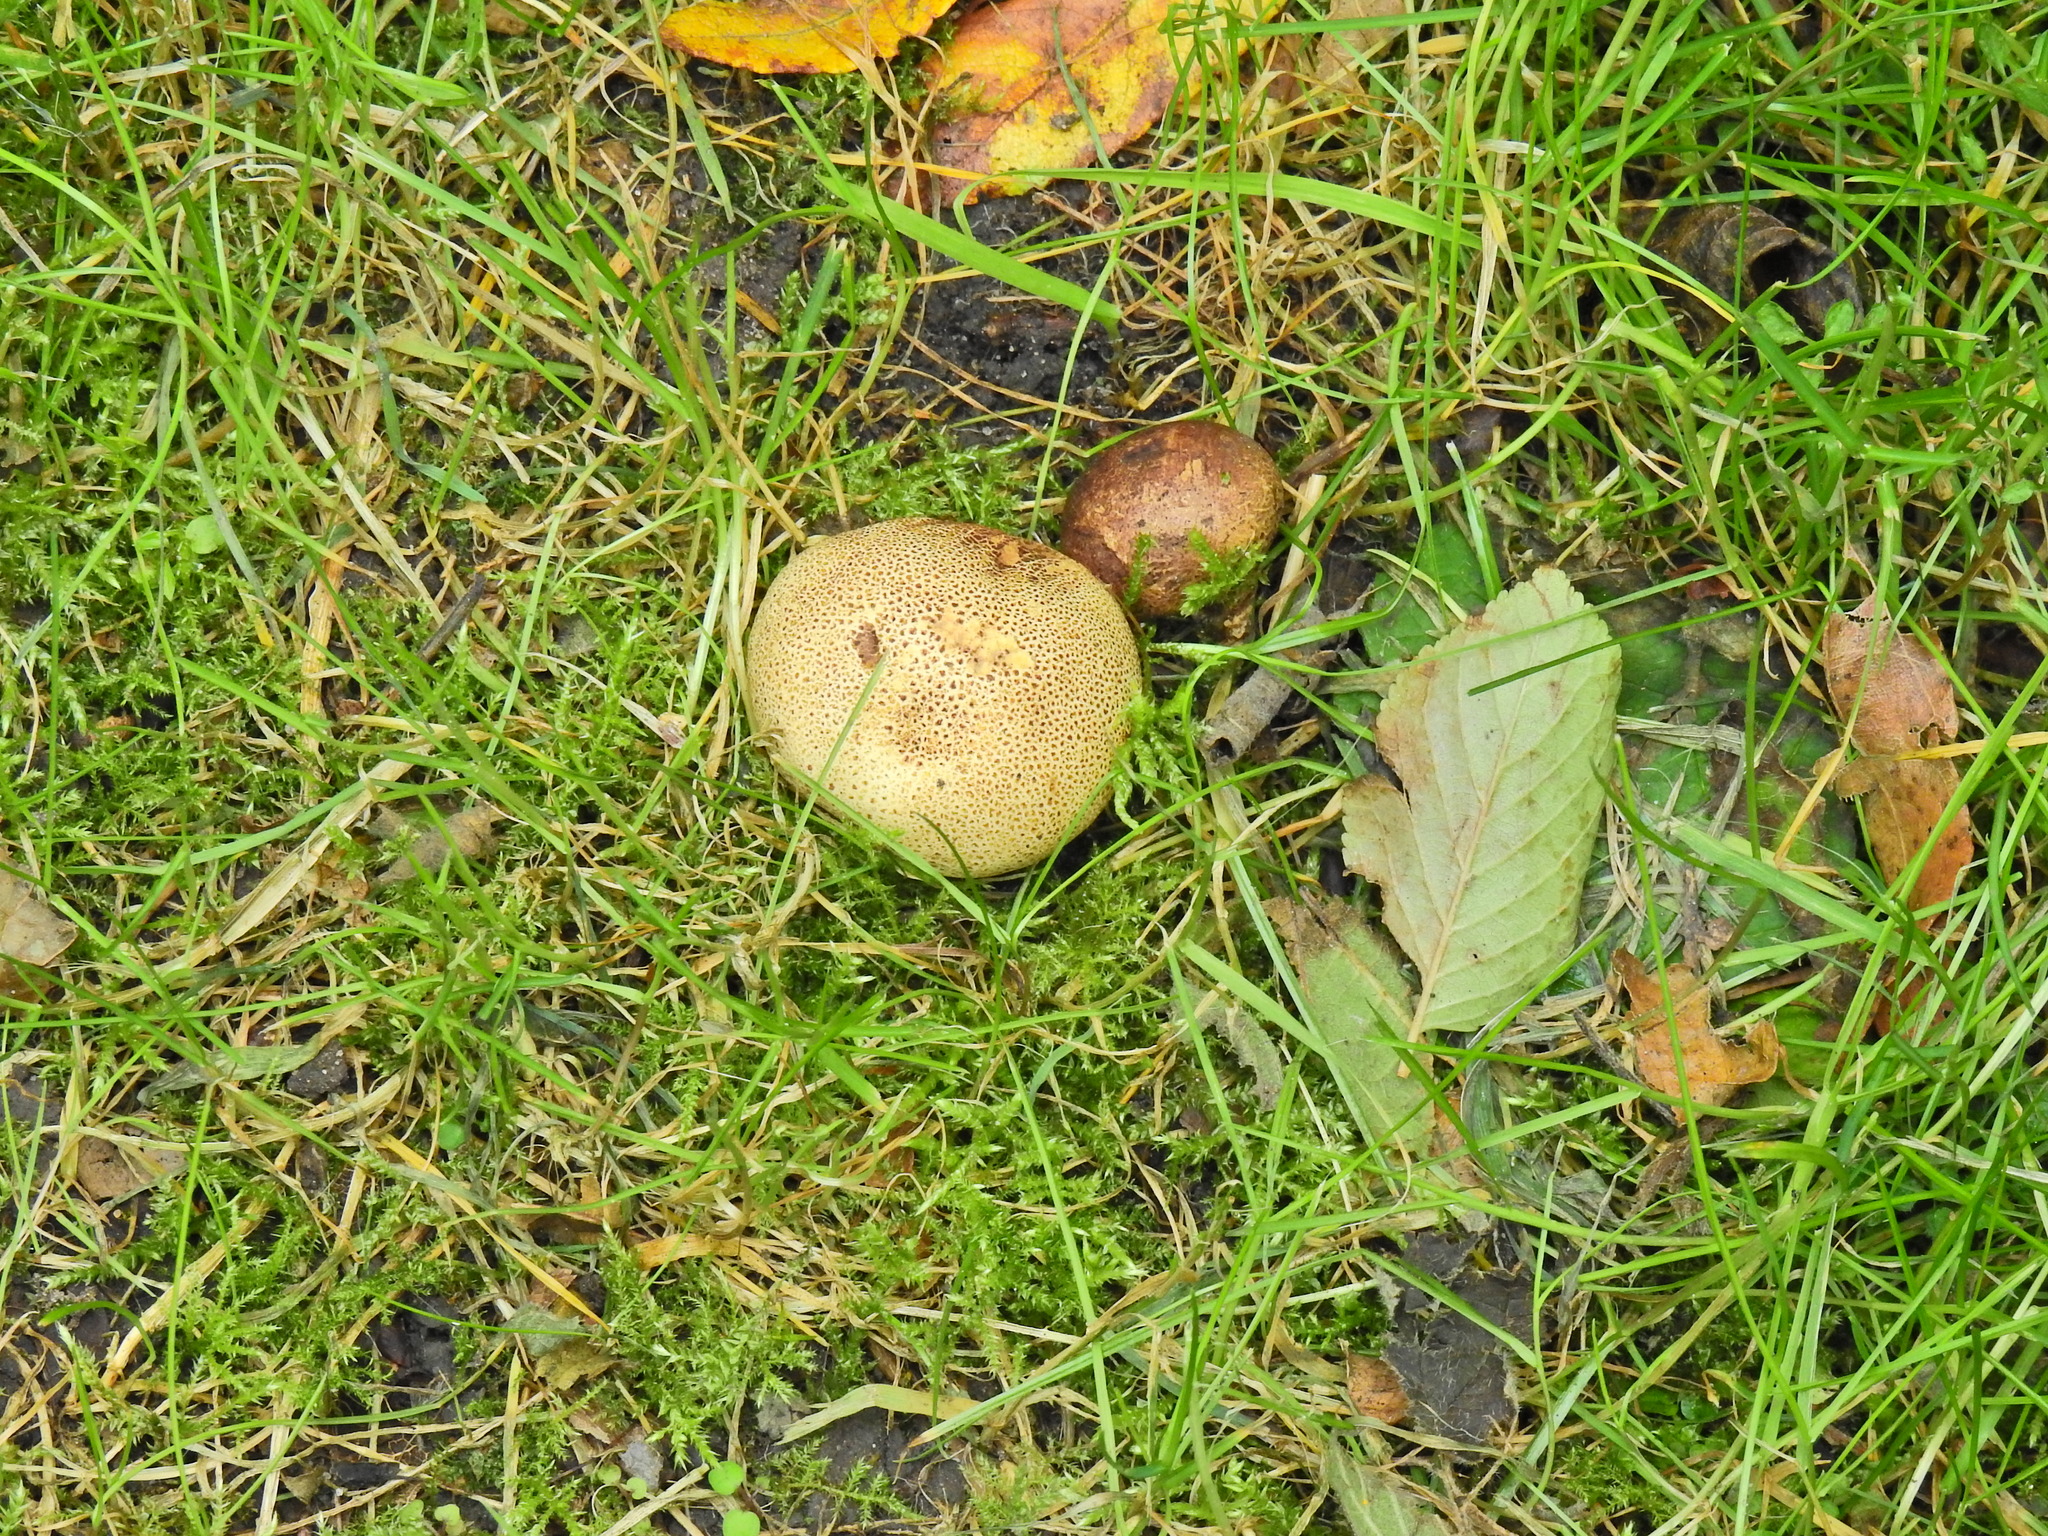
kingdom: Fungi
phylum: Basidiomycota
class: Agaricomycetes
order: Boletales
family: Sclerodermataceae
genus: Scleroderma
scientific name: Scleroderma citrinum
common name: Common earthball
